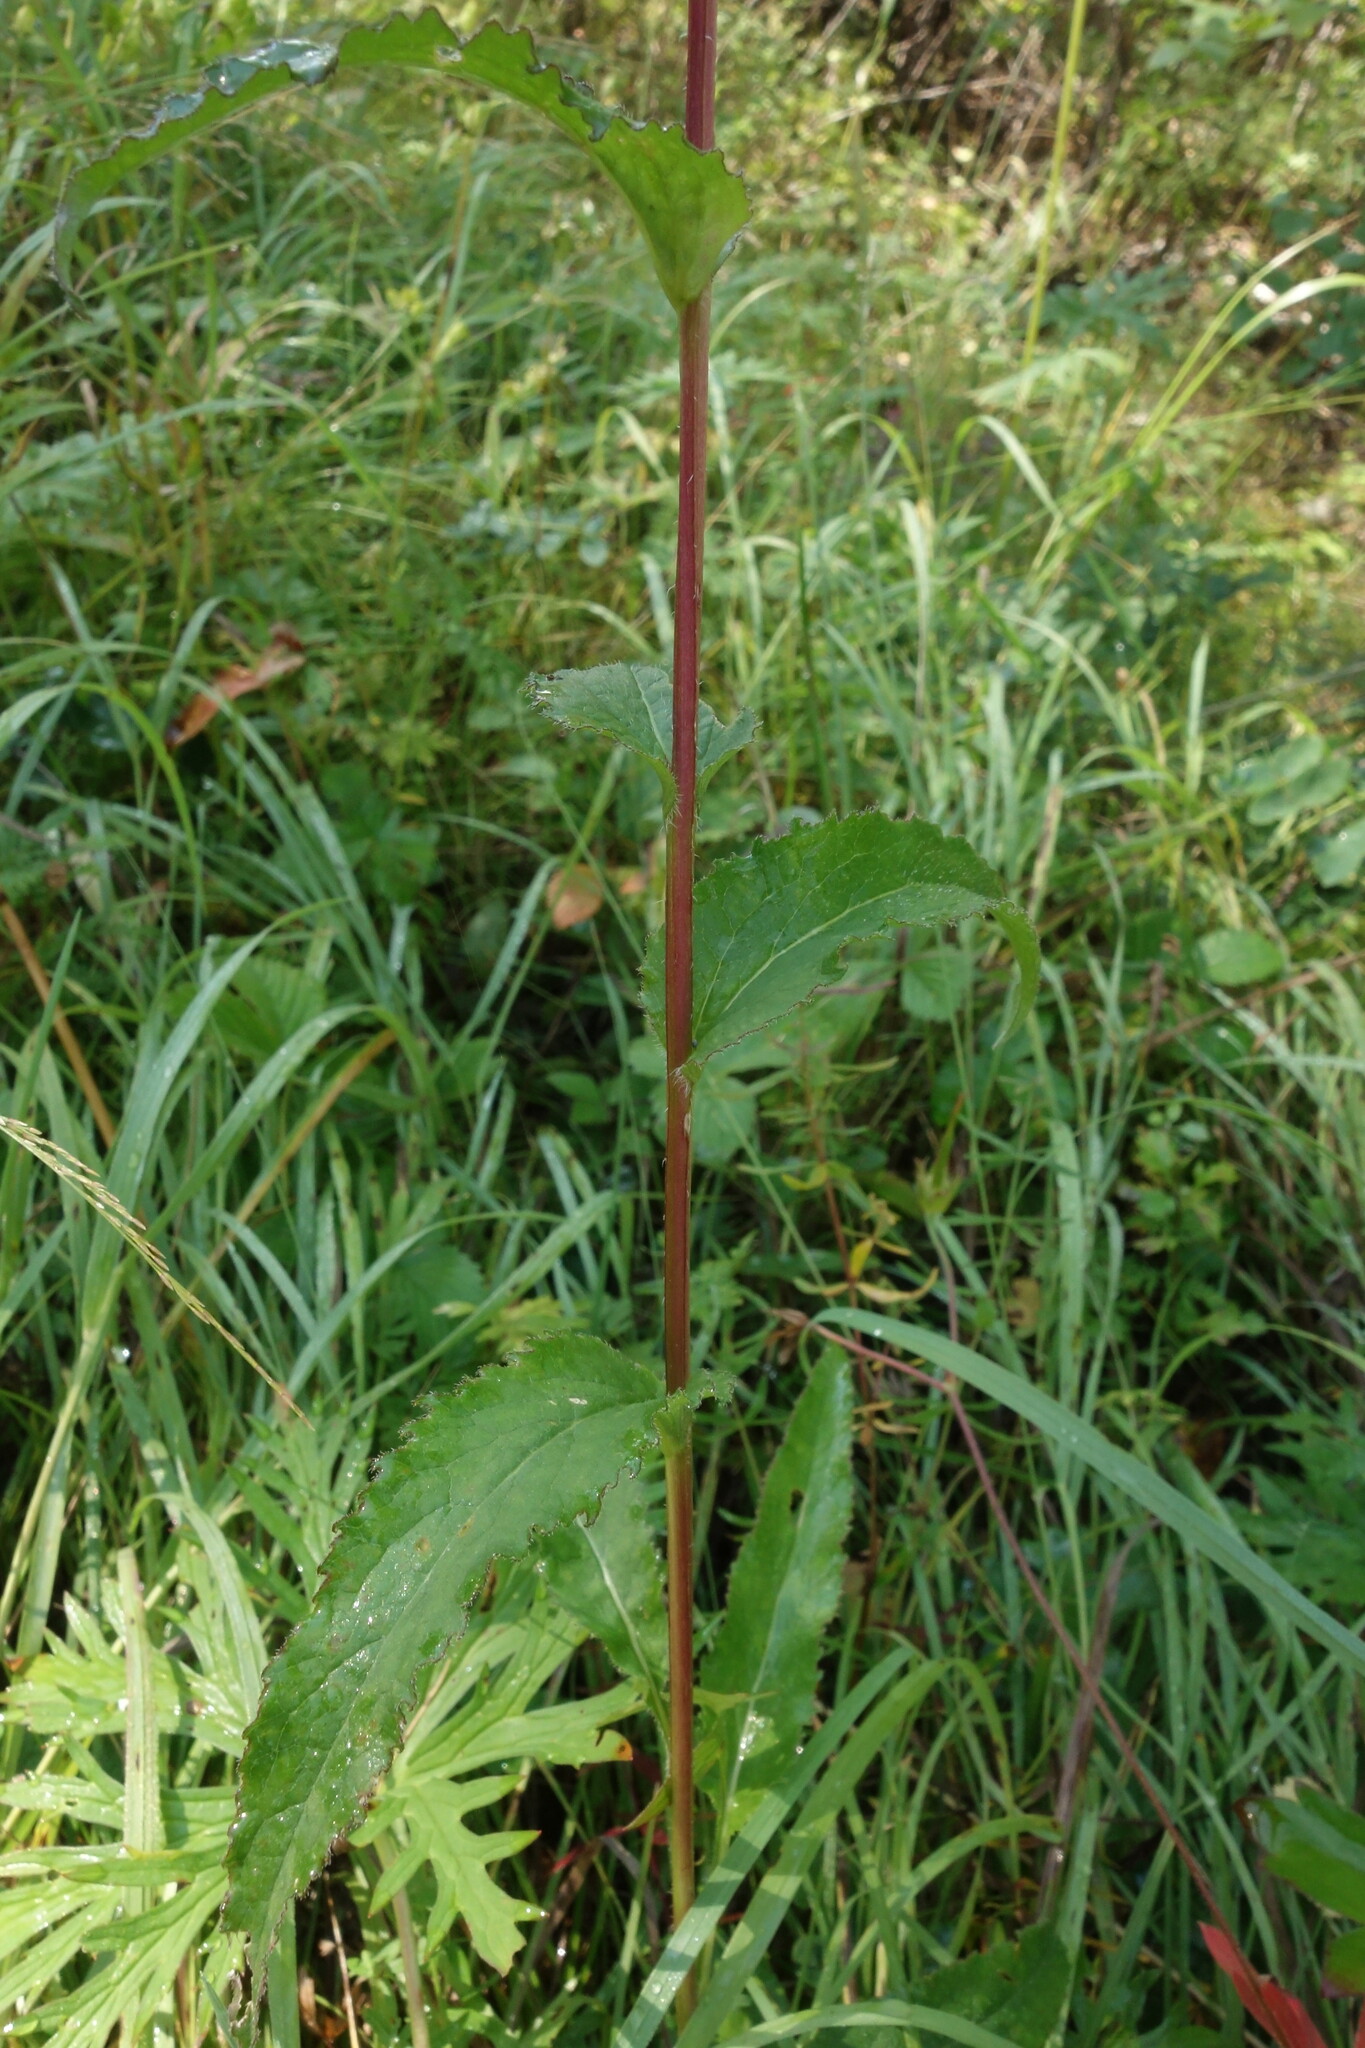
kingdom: Plantae
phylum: Tracheophyta
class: Magnoliopsida
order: Asterales
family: Campanulaceae
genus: Campanula
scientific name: Campanula glomerata
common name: Clustered bellflower
